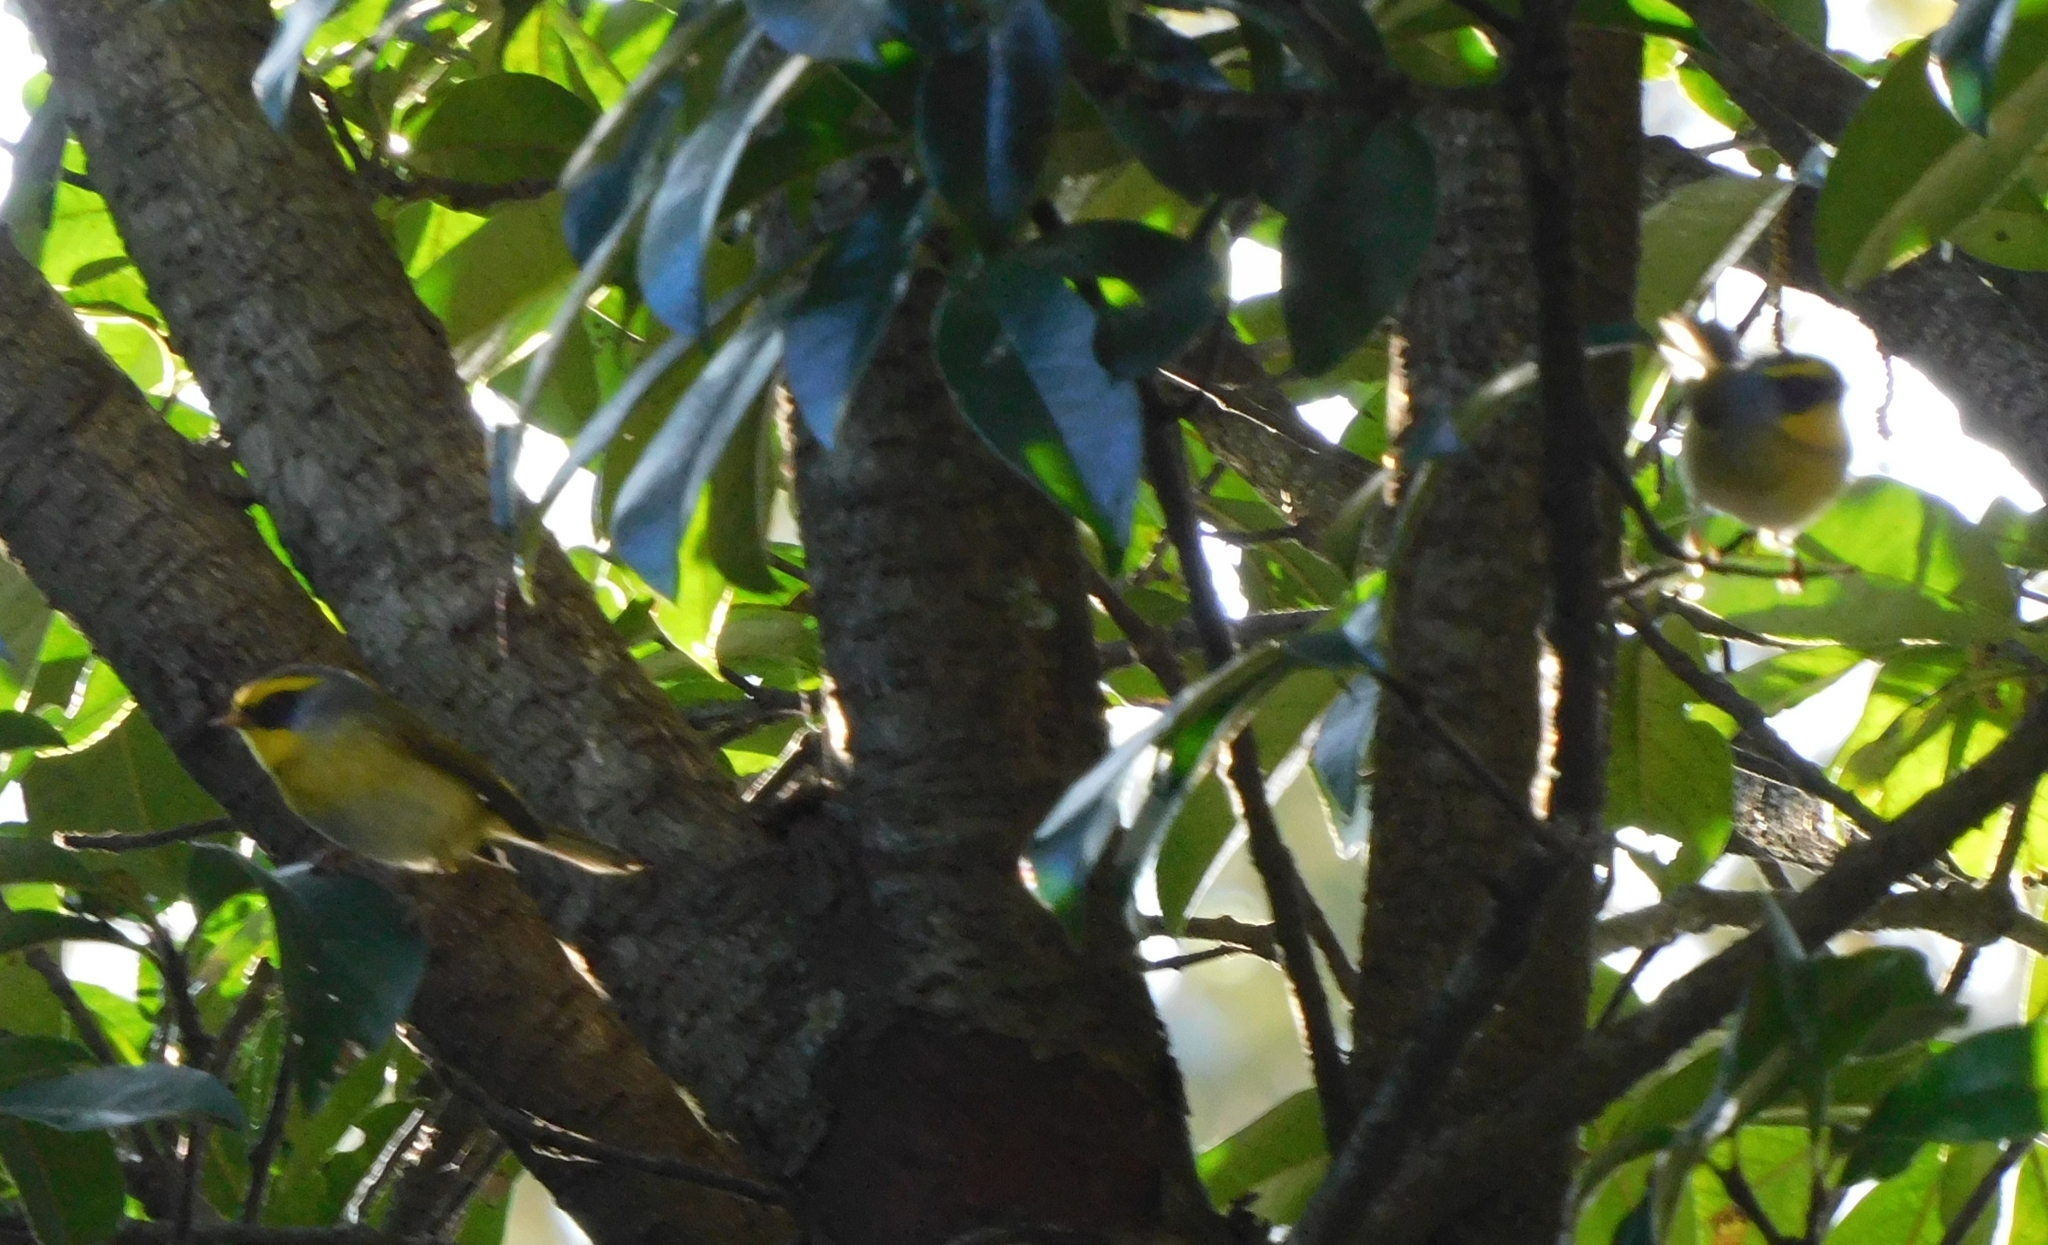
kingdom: Animalia
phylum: Chordata
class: Aves
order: Passeriformes
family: Cettiidae
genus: Abroscopus
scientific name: Abroscopus schisticeps
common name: Black-faced warbler
